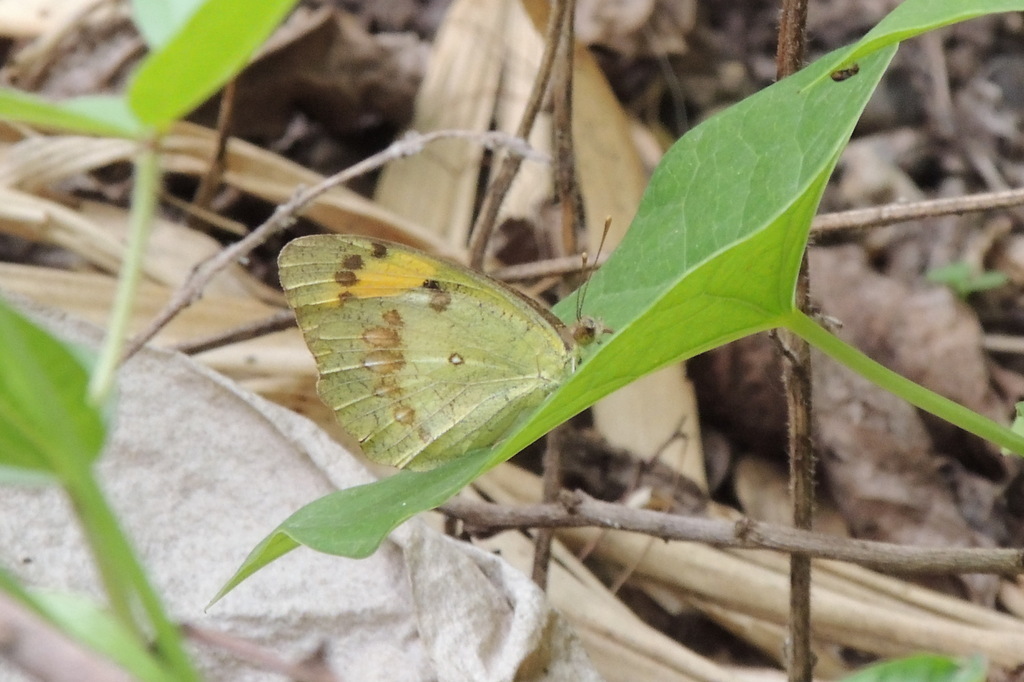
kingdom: Animalia
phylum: Arthropoda
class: Insecta
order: Lepidoptera
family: Pieridae
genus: Ixias
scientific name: Ixias marianne
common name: White orange tip
